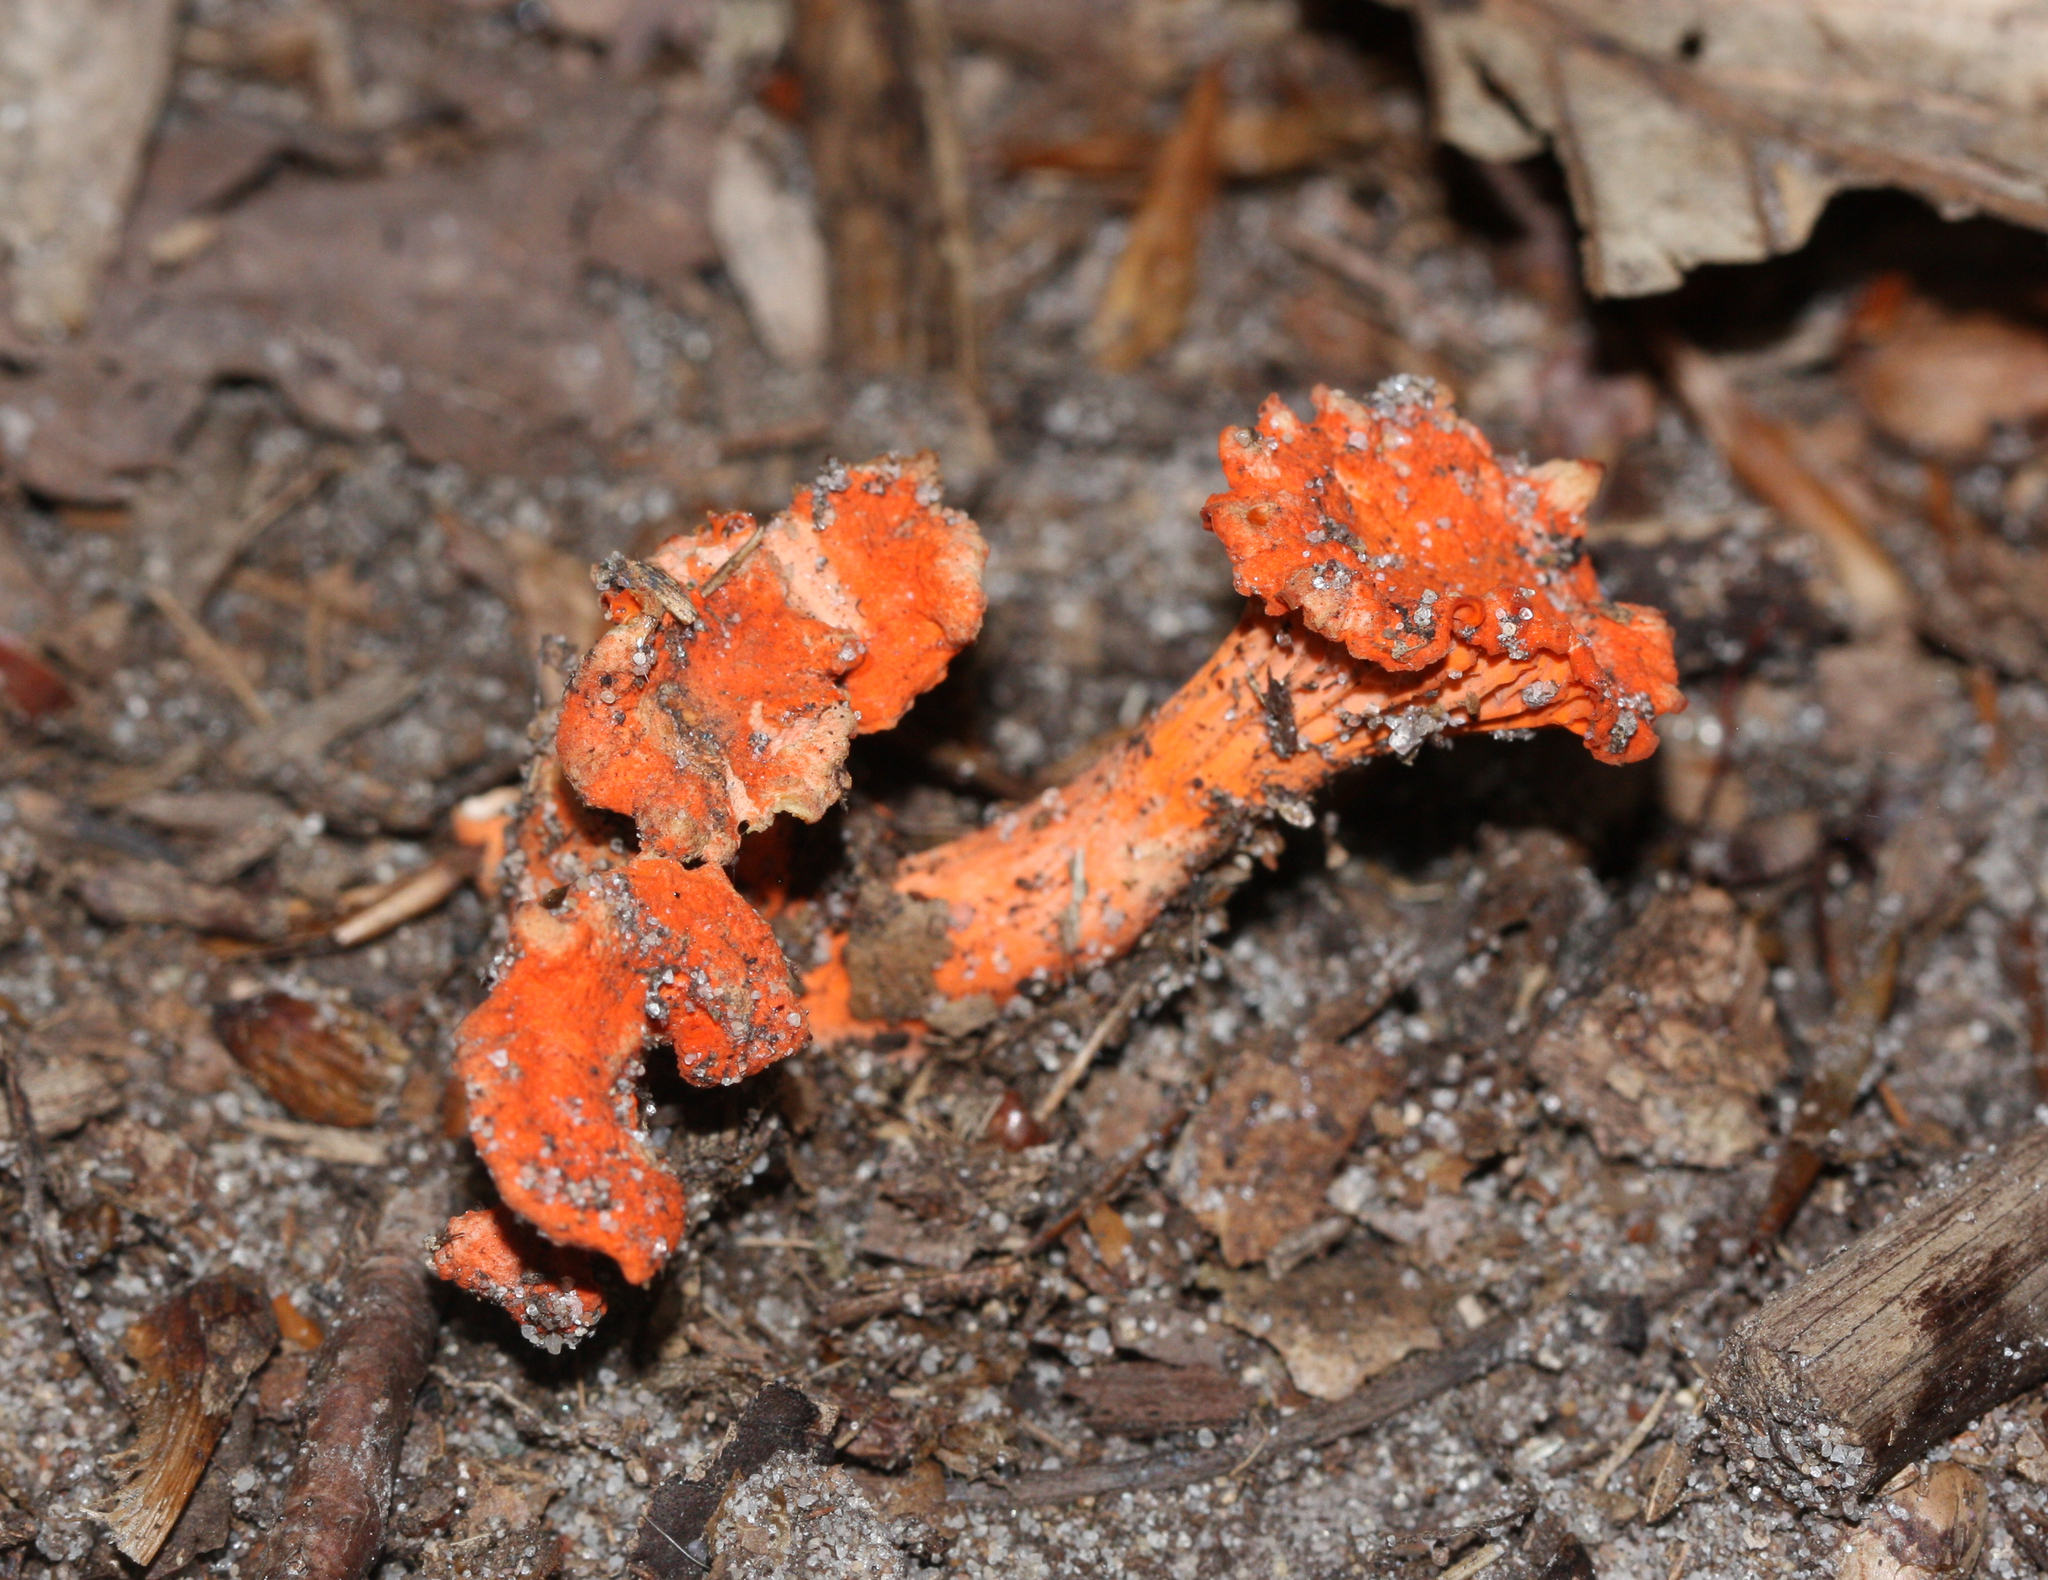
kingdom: Fungi
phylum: Basidiomycota
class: Agaricomycetes
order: Cantharellales
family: Hydnaceae
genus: Cantharellus
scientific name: Cantharellus cinnabarinus
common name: Cinnabar chanterelle
